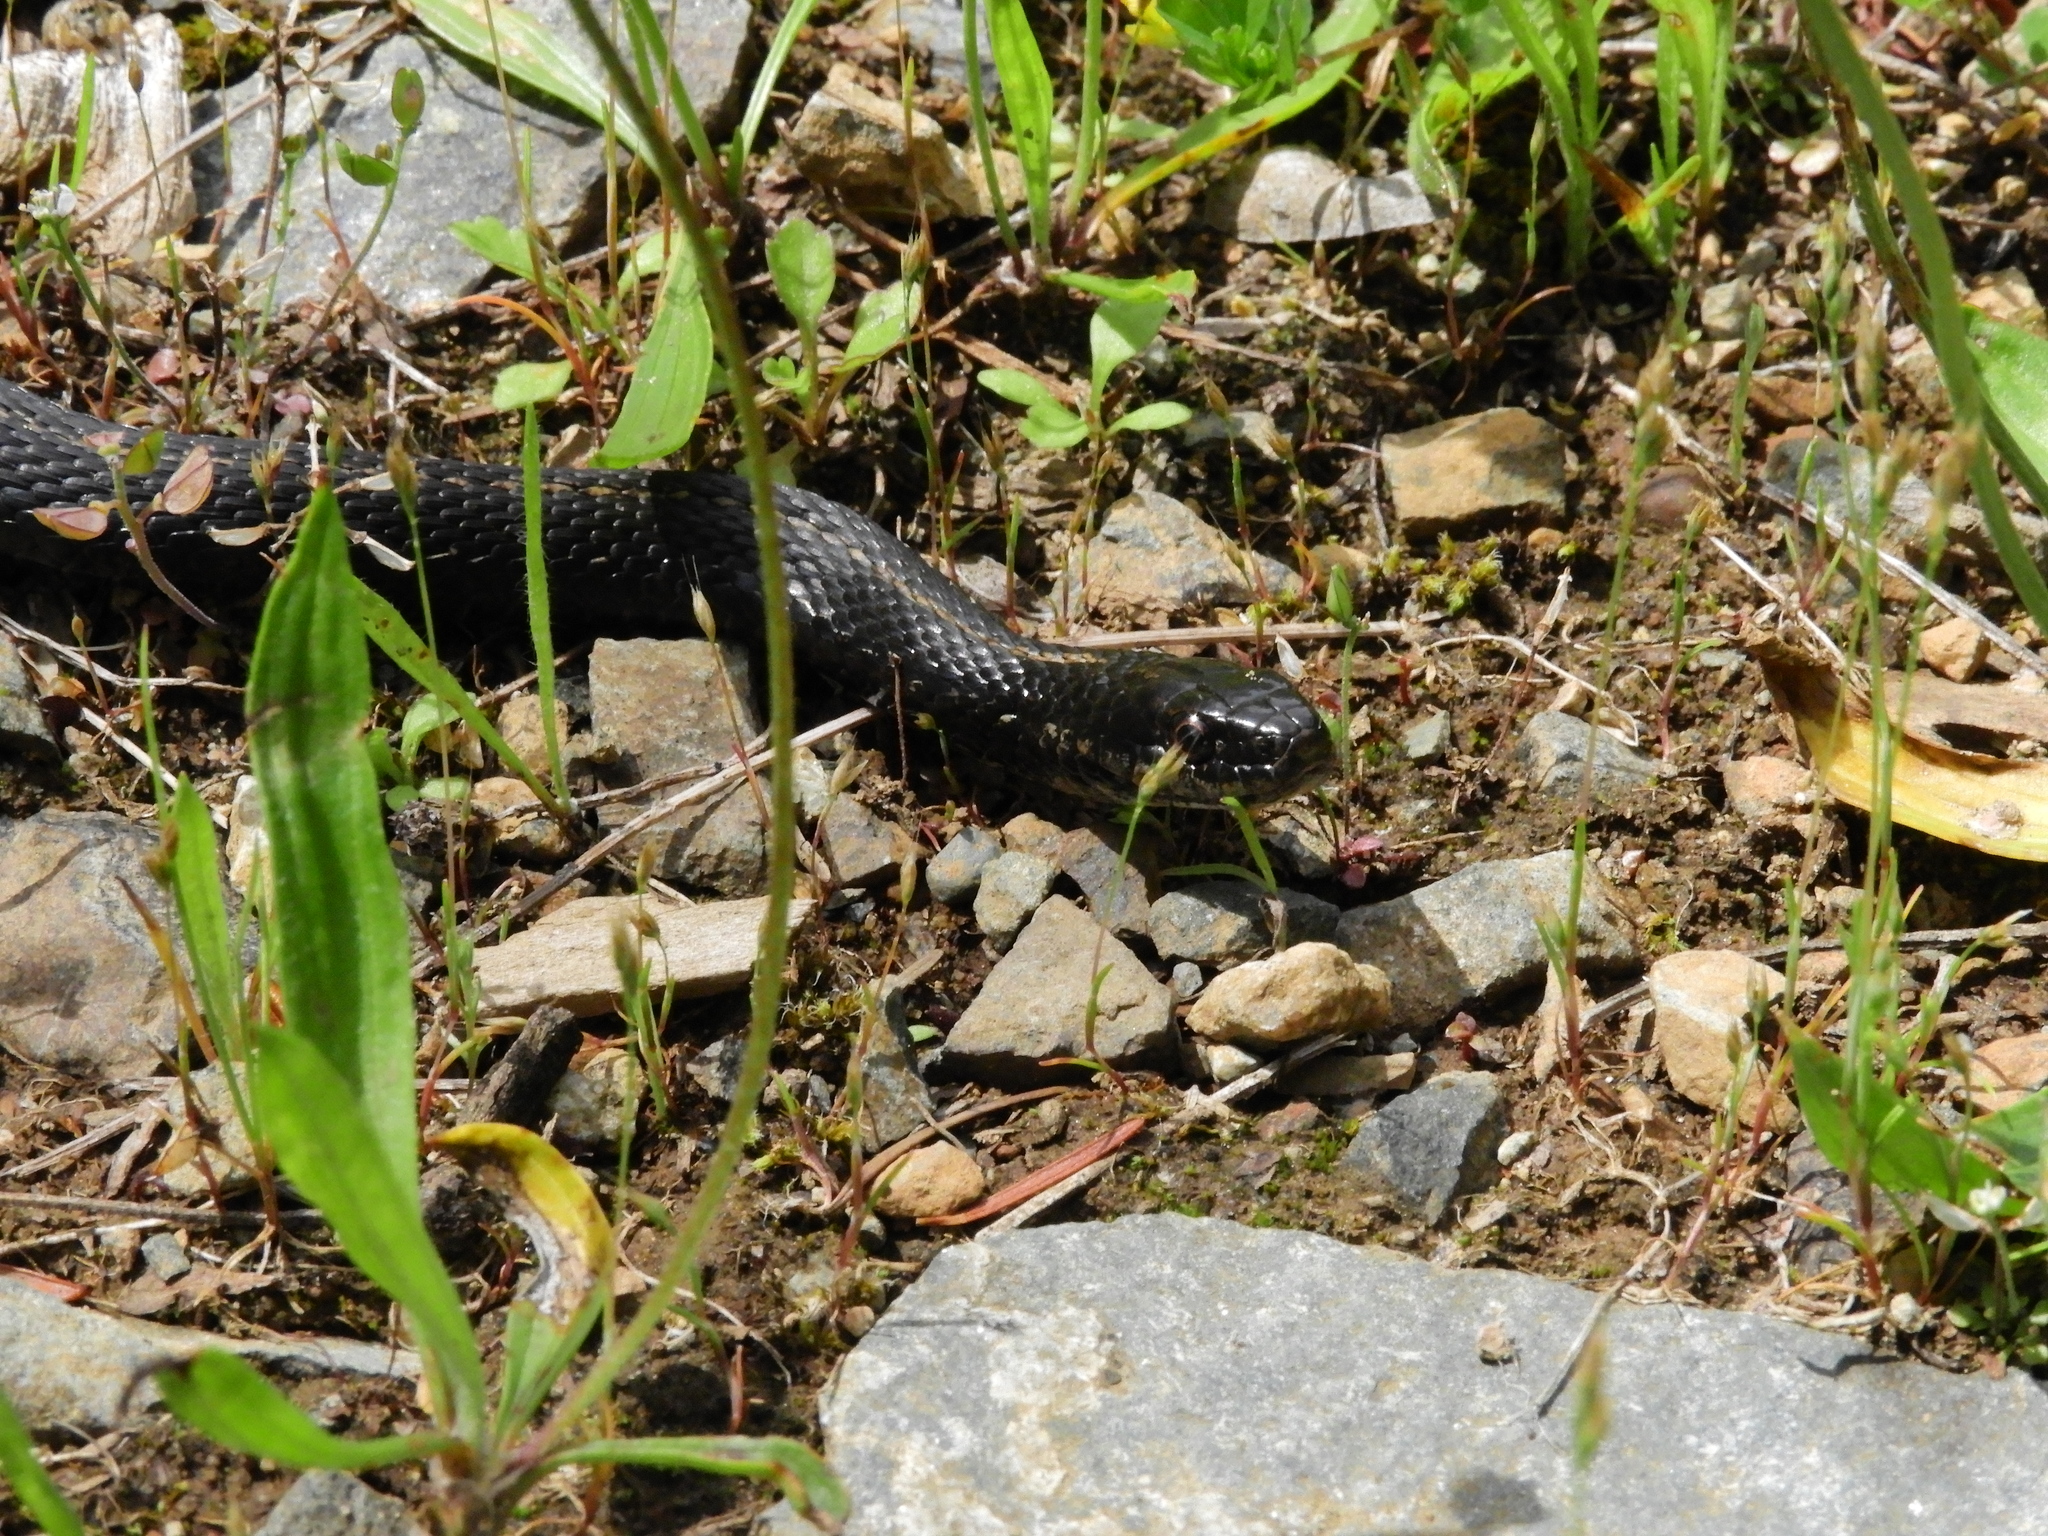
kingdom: Animalia
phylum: Chordata
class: Squamata
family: Colubridae
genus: Thamnophis
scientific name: Thamnophis ordinoides
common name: Northwestern garter snake
